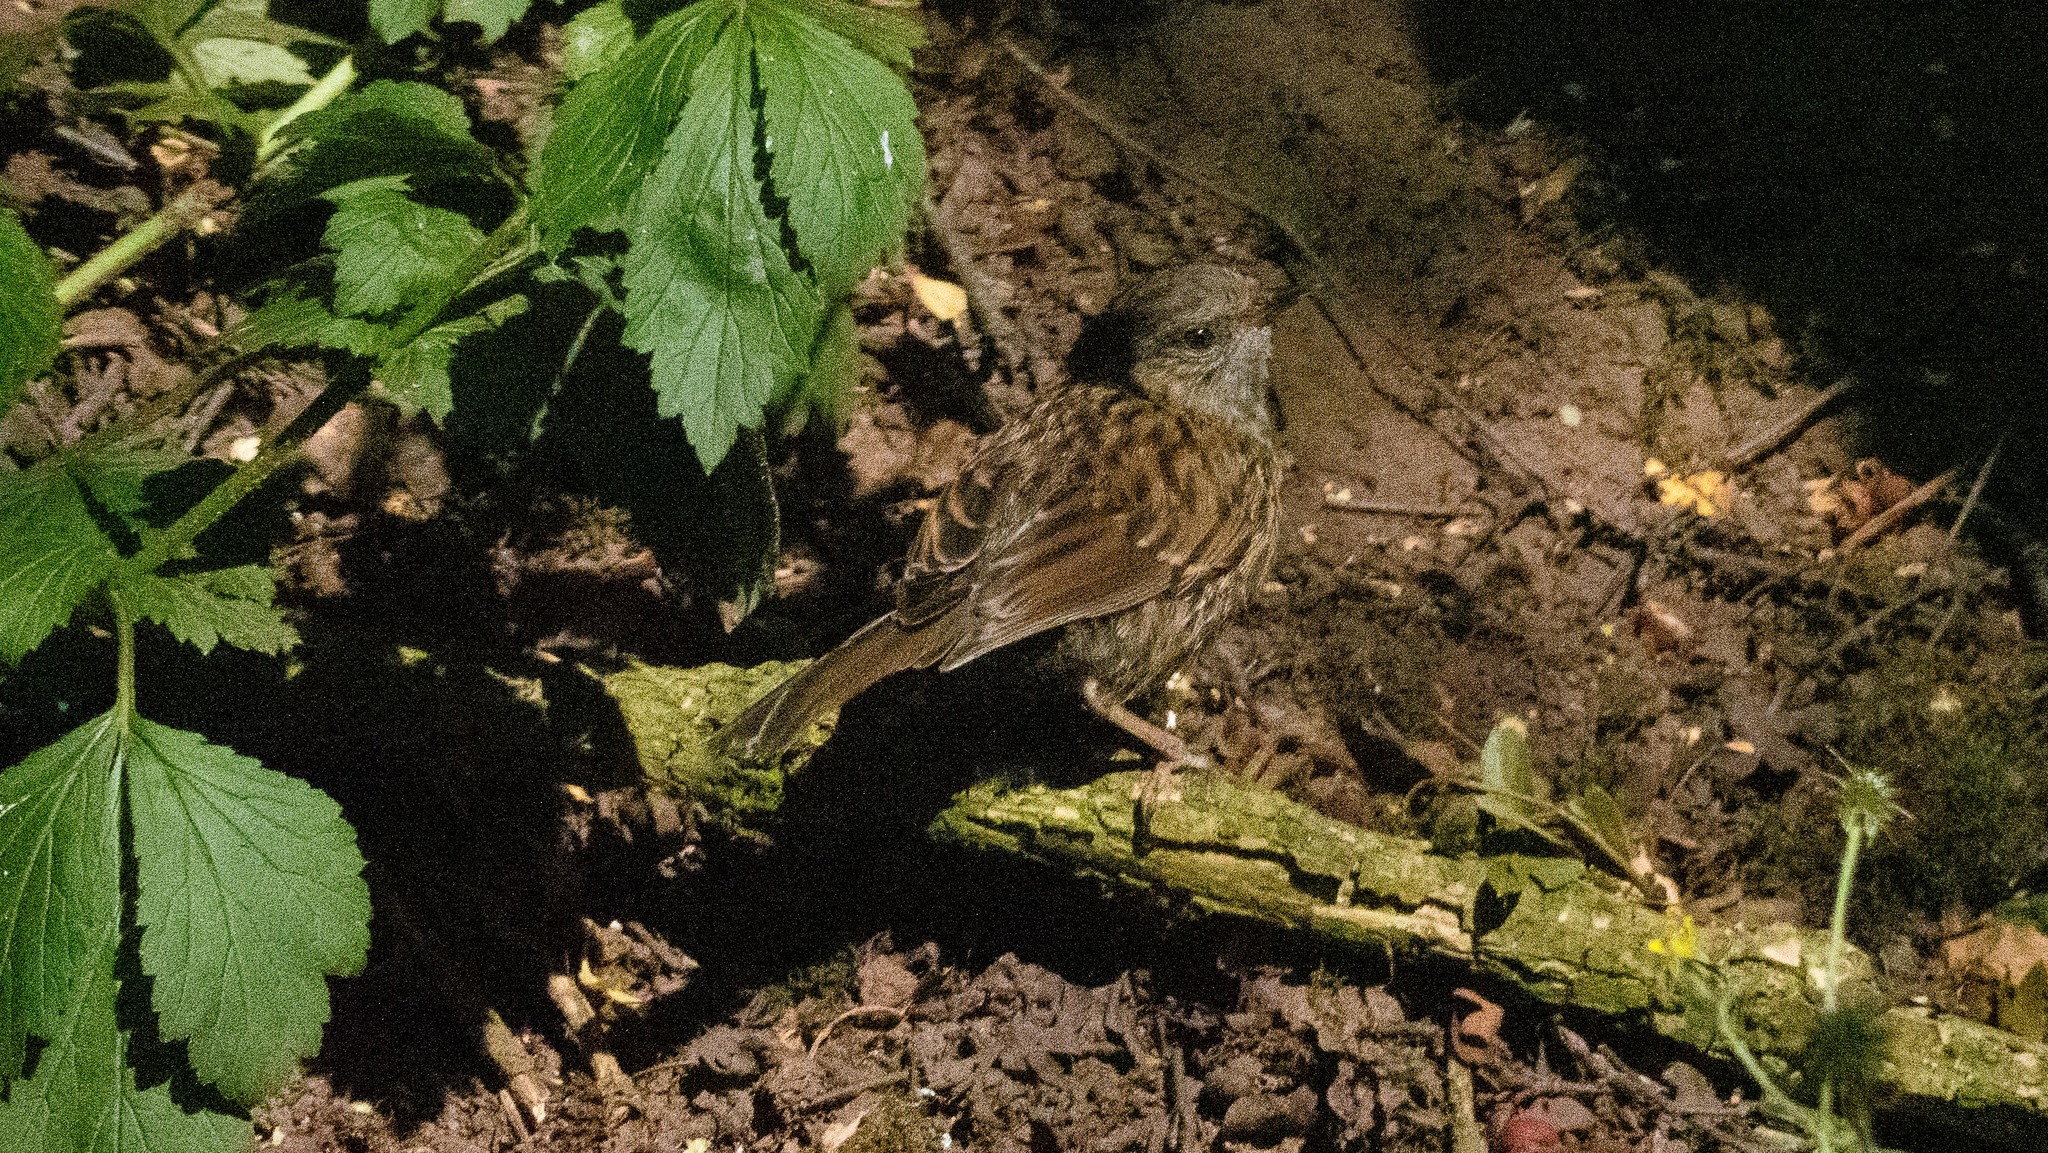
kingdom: Animalia
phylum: Chordata
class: Aves
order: Passeriformes
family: Prunellidae
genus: Prunella
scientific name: Prunella modularis
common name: Dunnock
